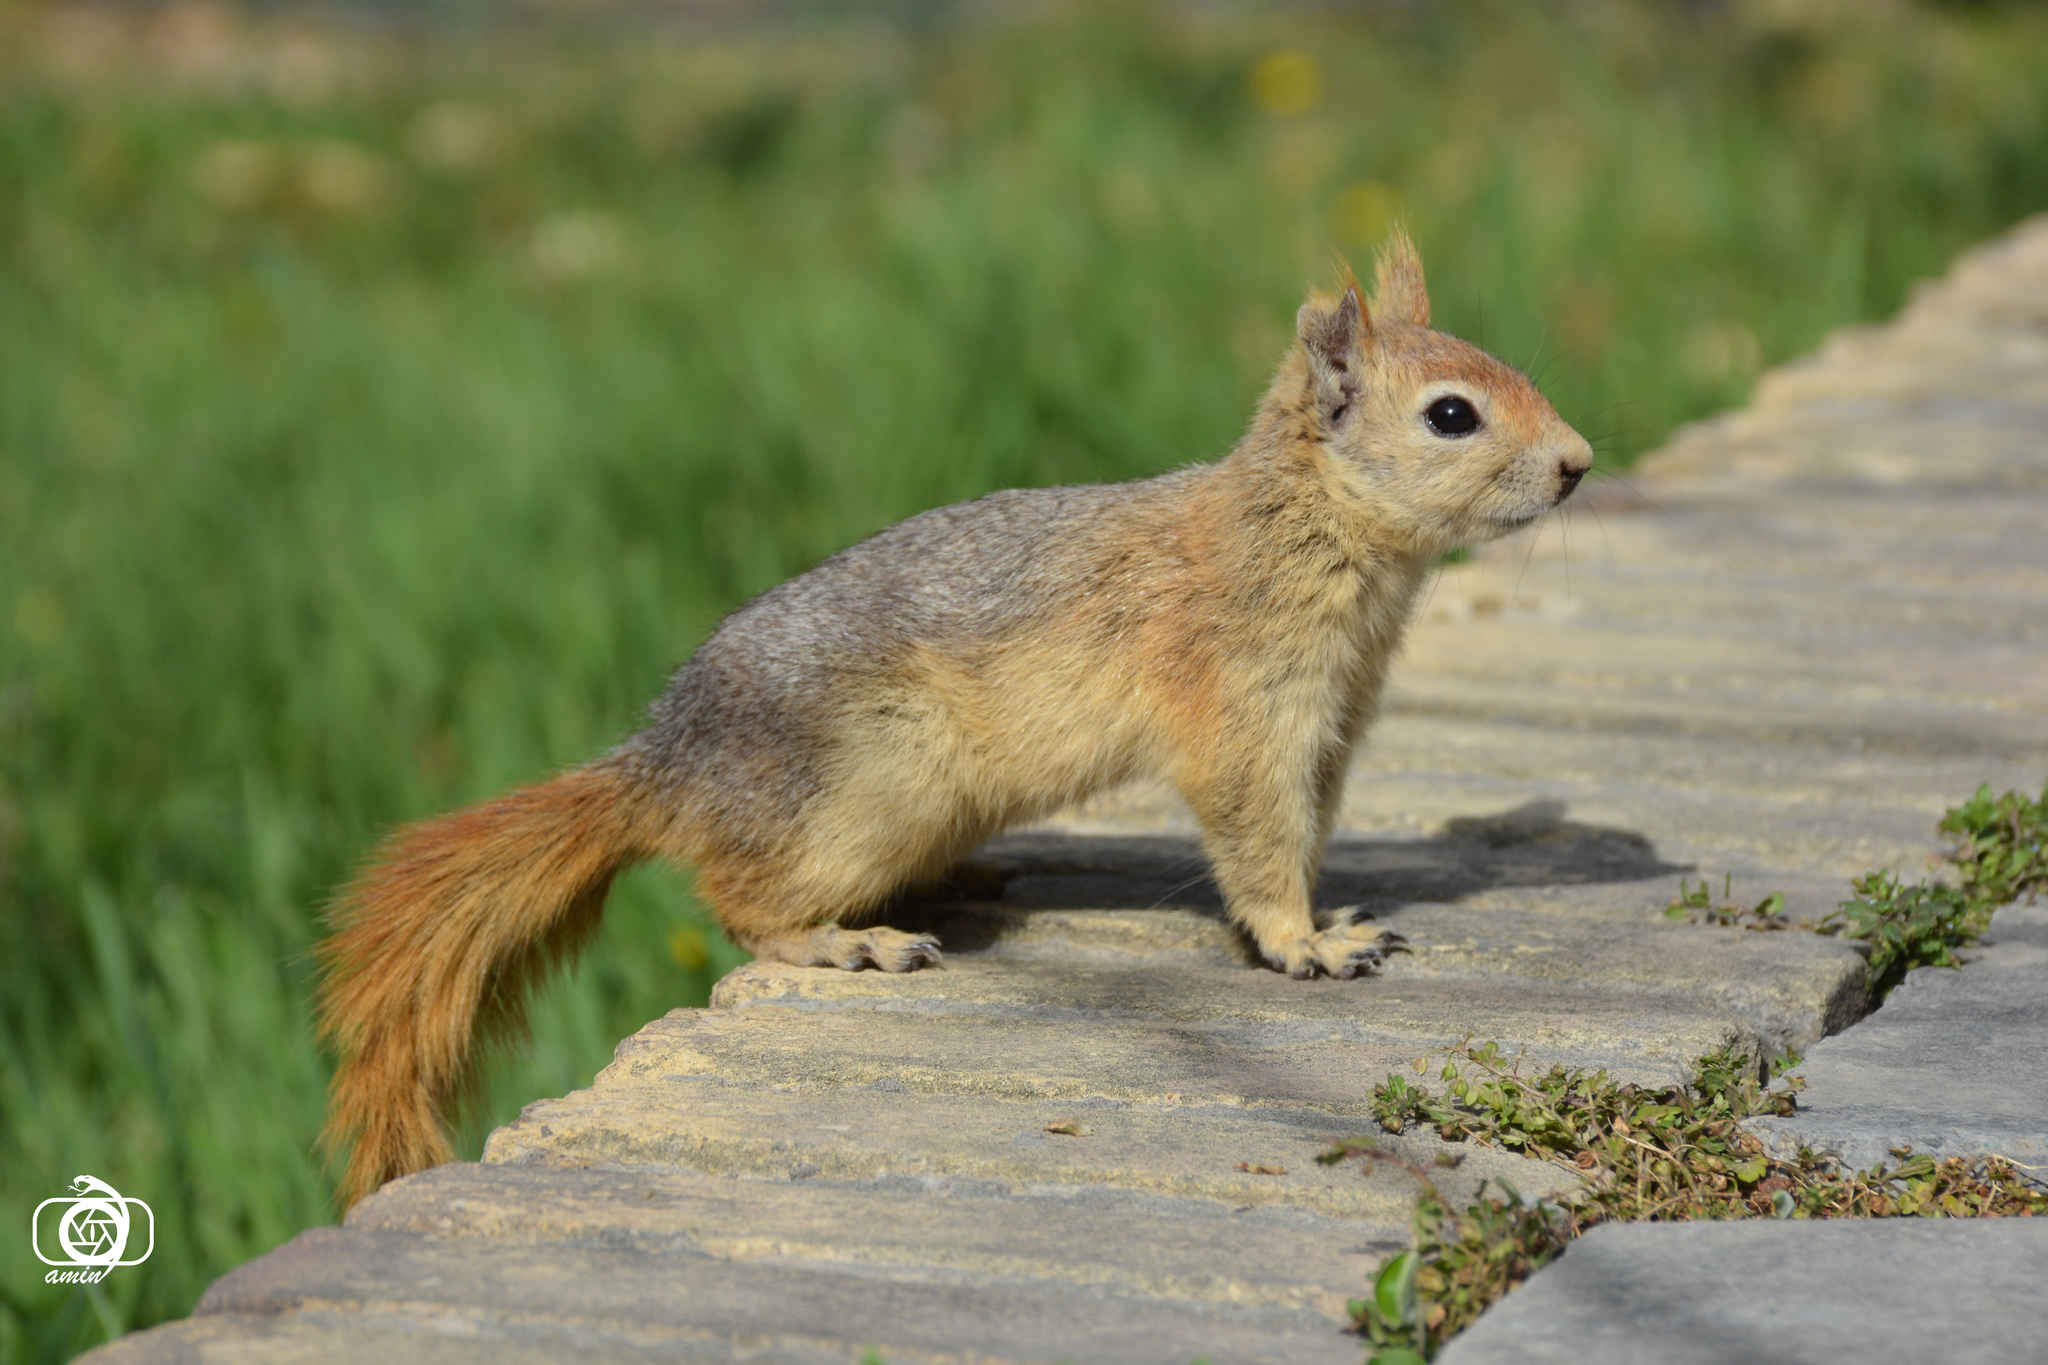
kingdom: Animalia
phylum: Chordata
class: Mammalia
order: Rodentia
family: Sciuridae
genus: Sciurus
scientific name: Sciurus anomalus
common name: Caucasian squirrel
